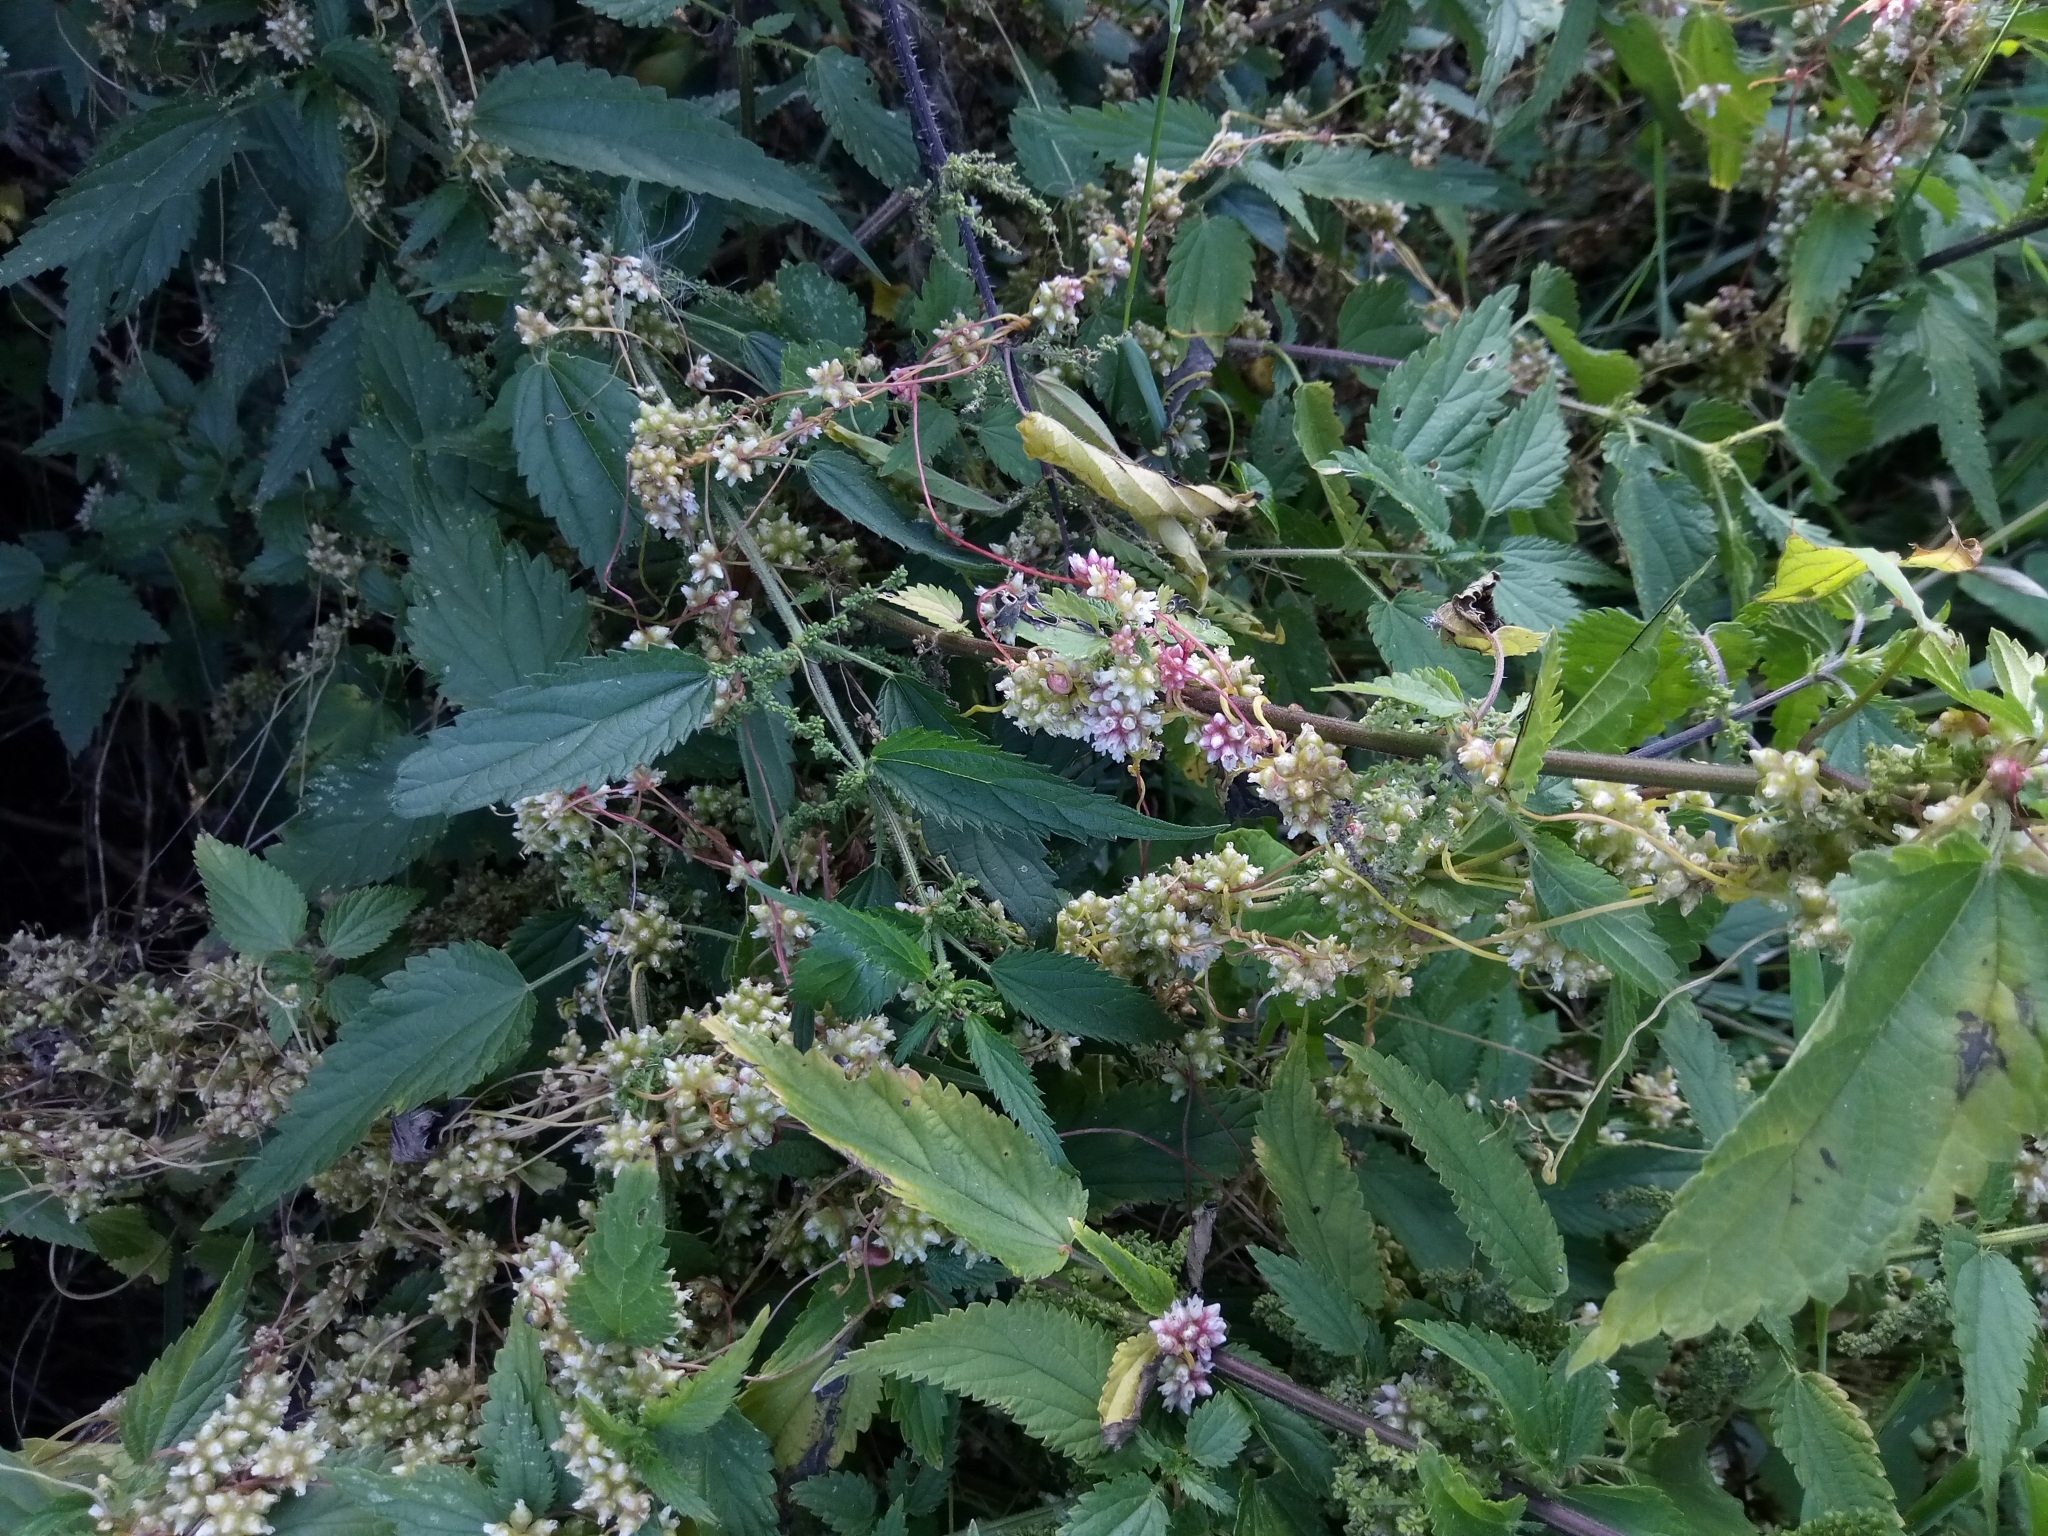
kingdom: Plantae
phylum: Tracheophyta
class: Magnoliopsida
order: Solanales
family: Convolvulaceae
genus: Cuscuta
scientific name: Cuscuta europaea
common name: Greater dodder
